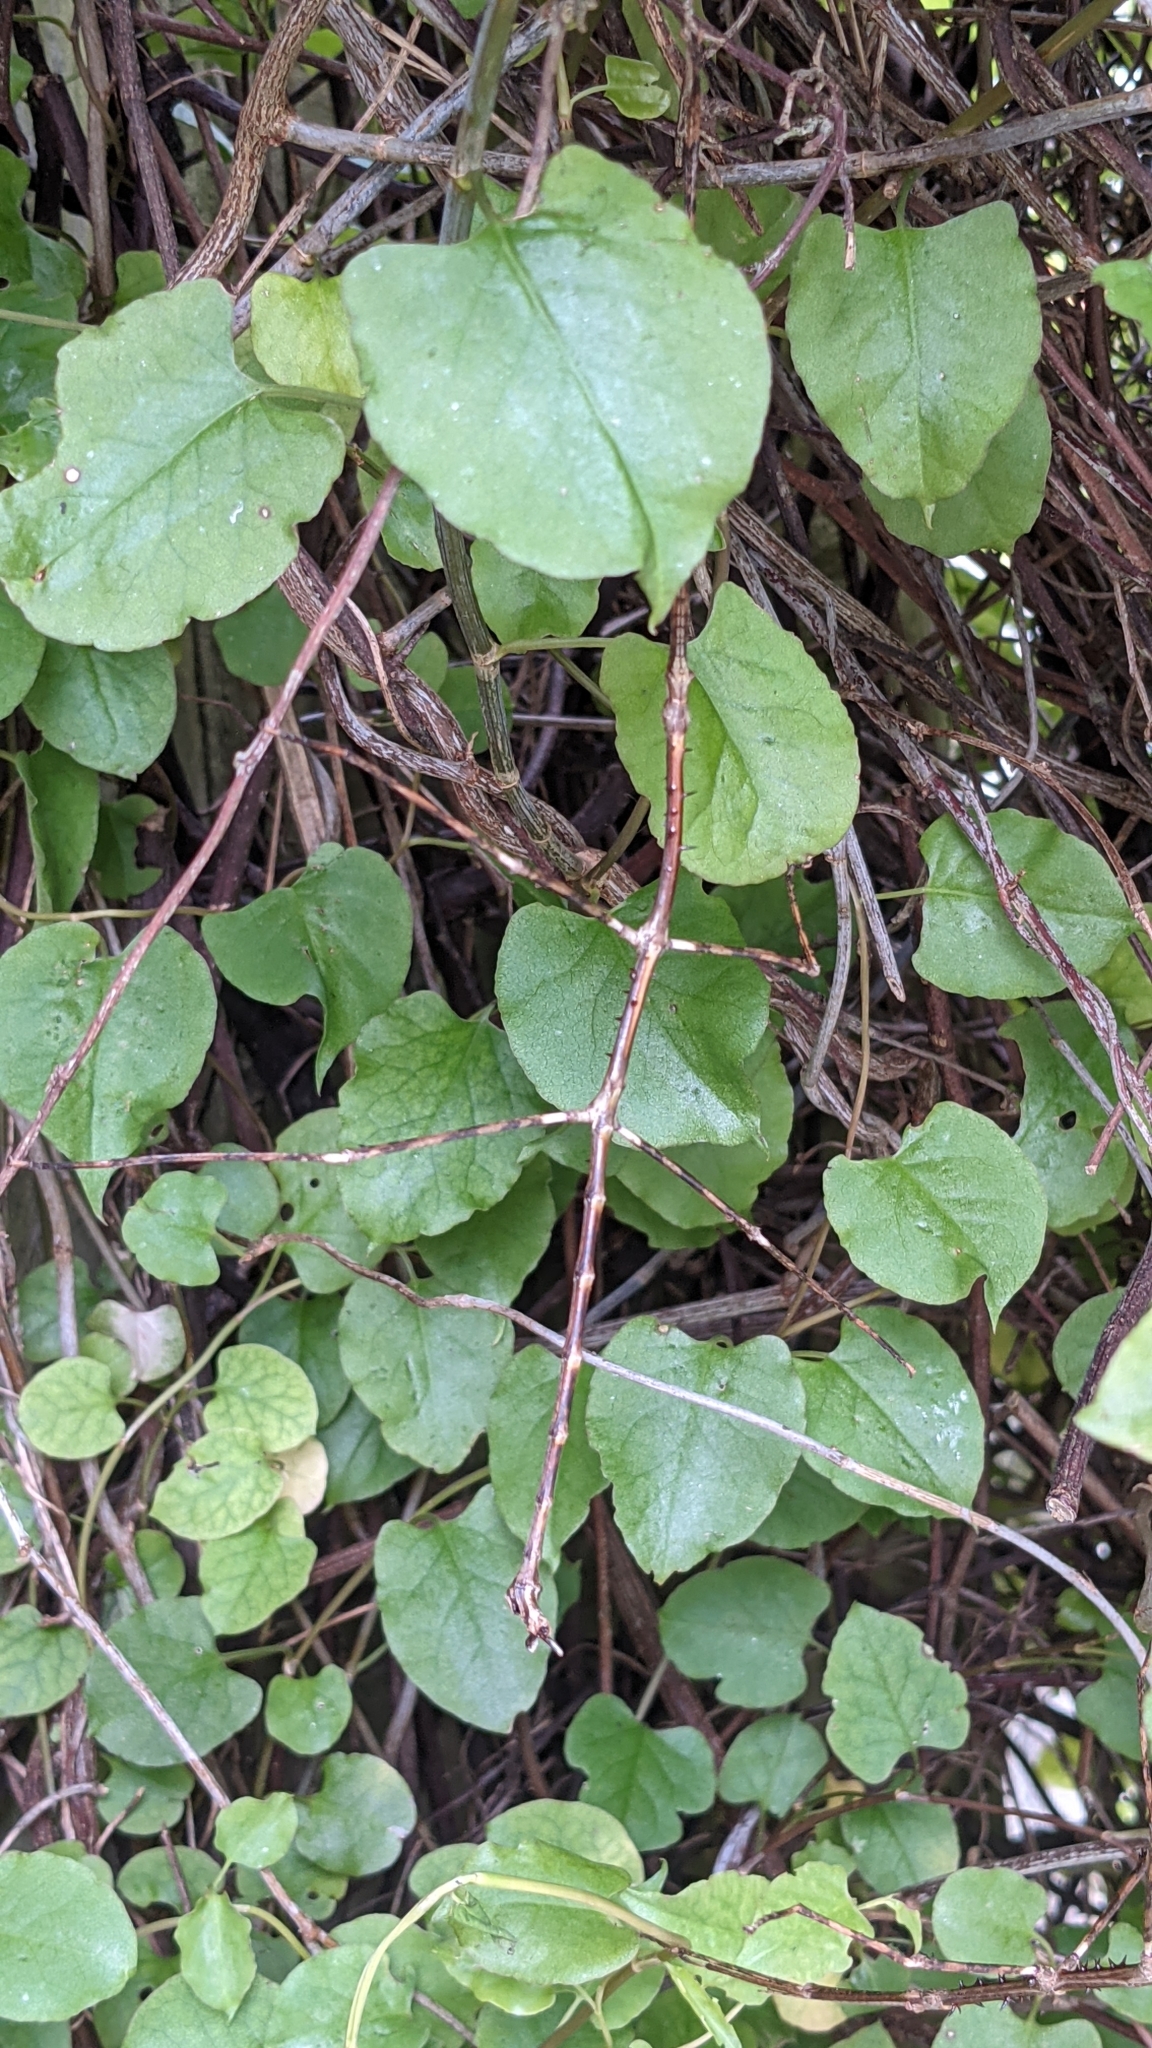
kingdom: Animalia
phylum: Arthropoda
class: Insecta
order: Phasmida
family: Phasmatidae
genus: Argosarchus
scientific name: Argosarchus horridus
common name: Bristly stick insect
